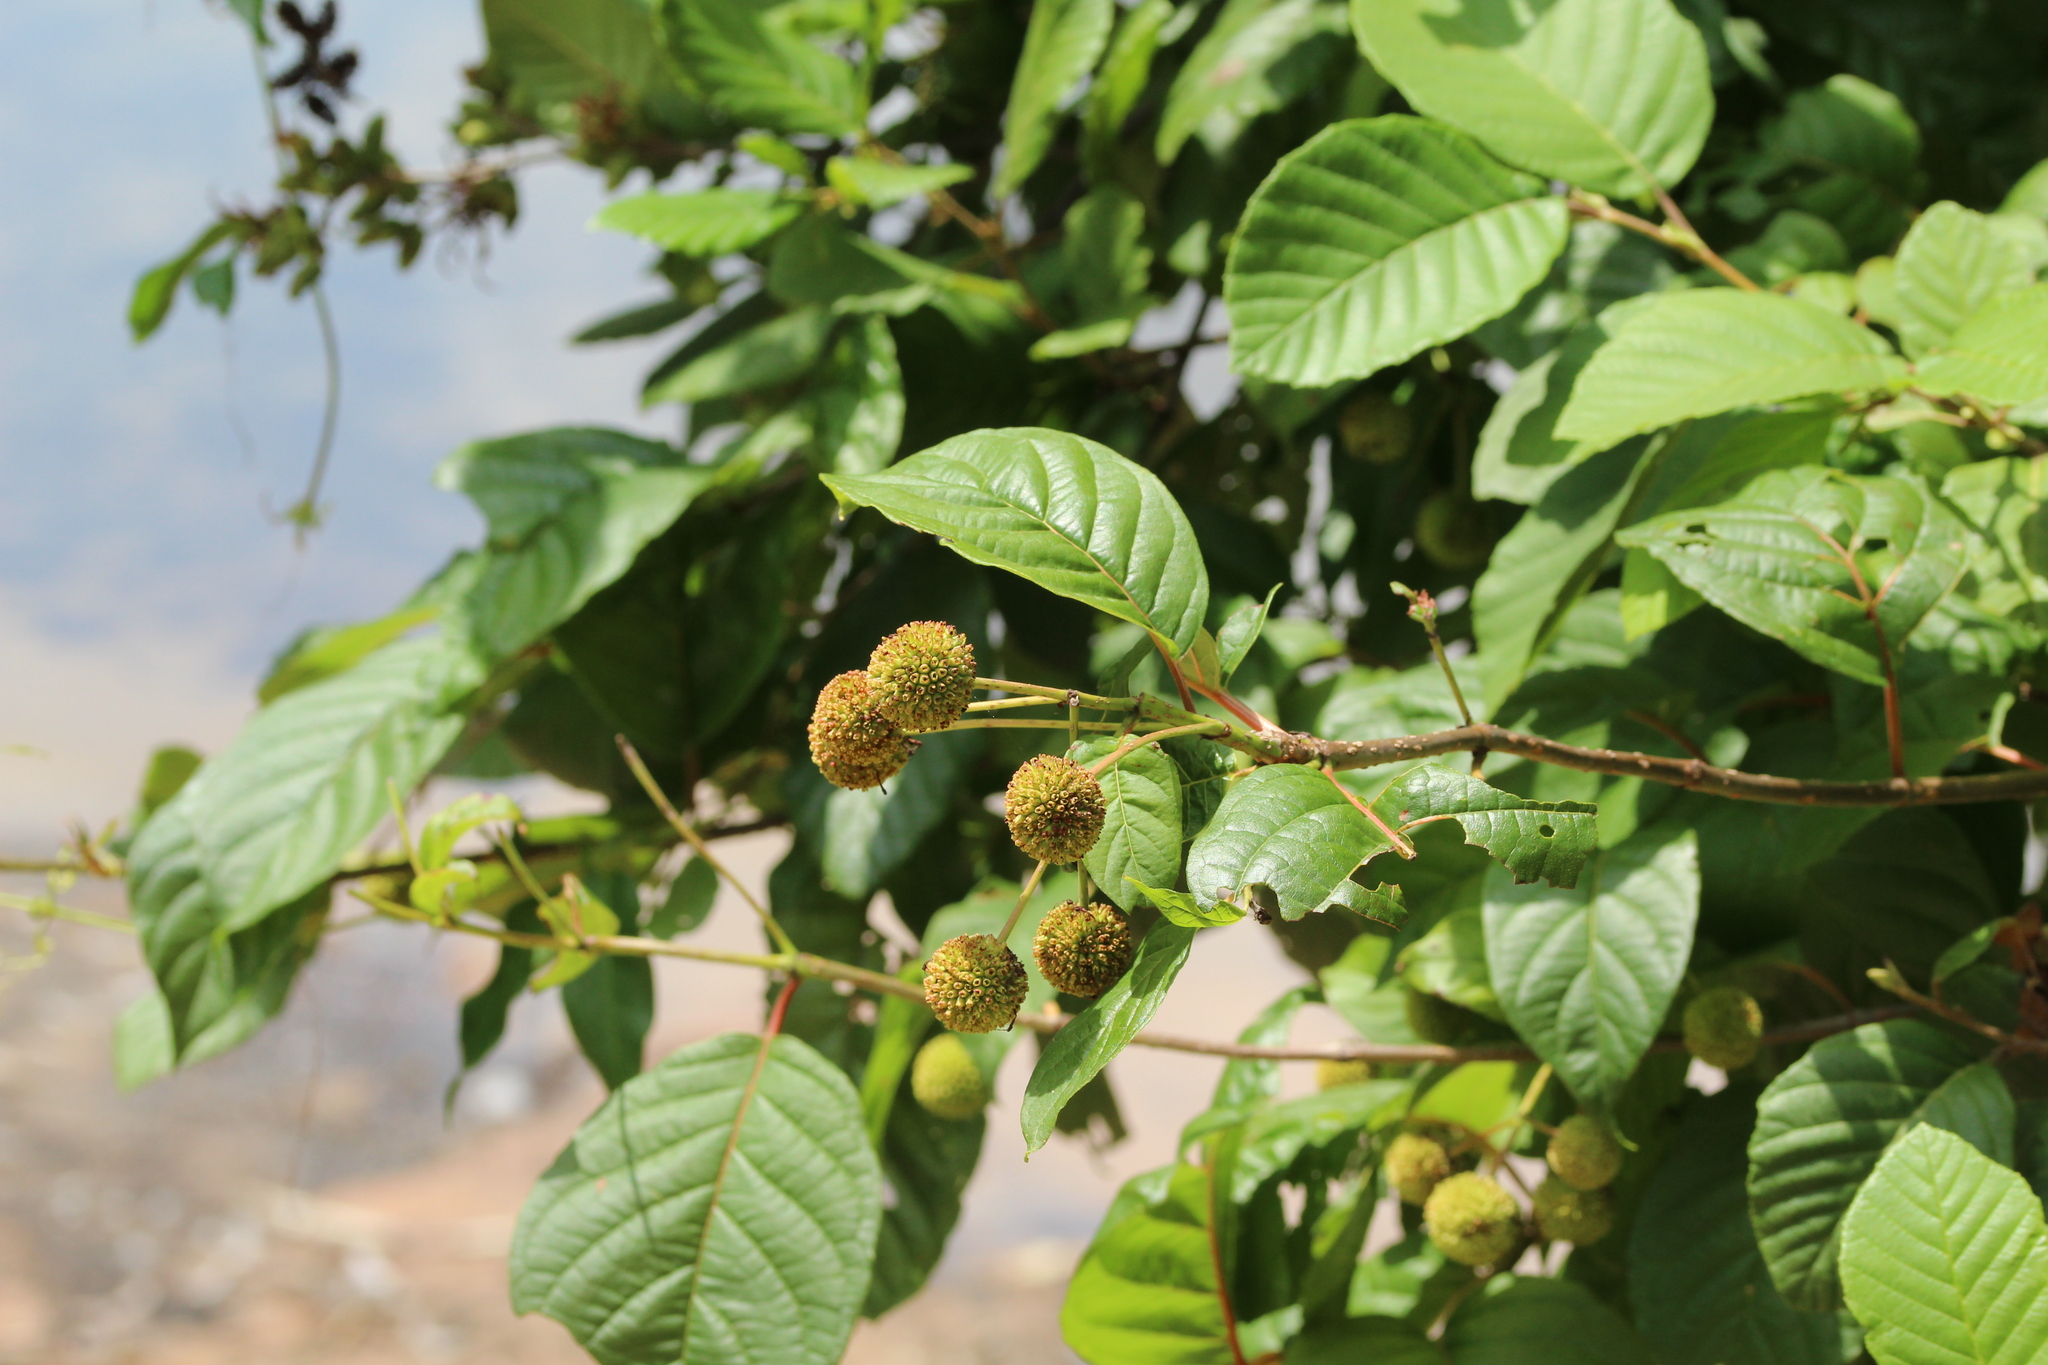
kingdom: Plantae
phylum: Tracheophyta
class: Magnoliopsida
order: Gentianales
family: Rubiaceae
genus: Cephalanthus
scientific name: Cephalanthus occidentalis
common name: Button-willow
